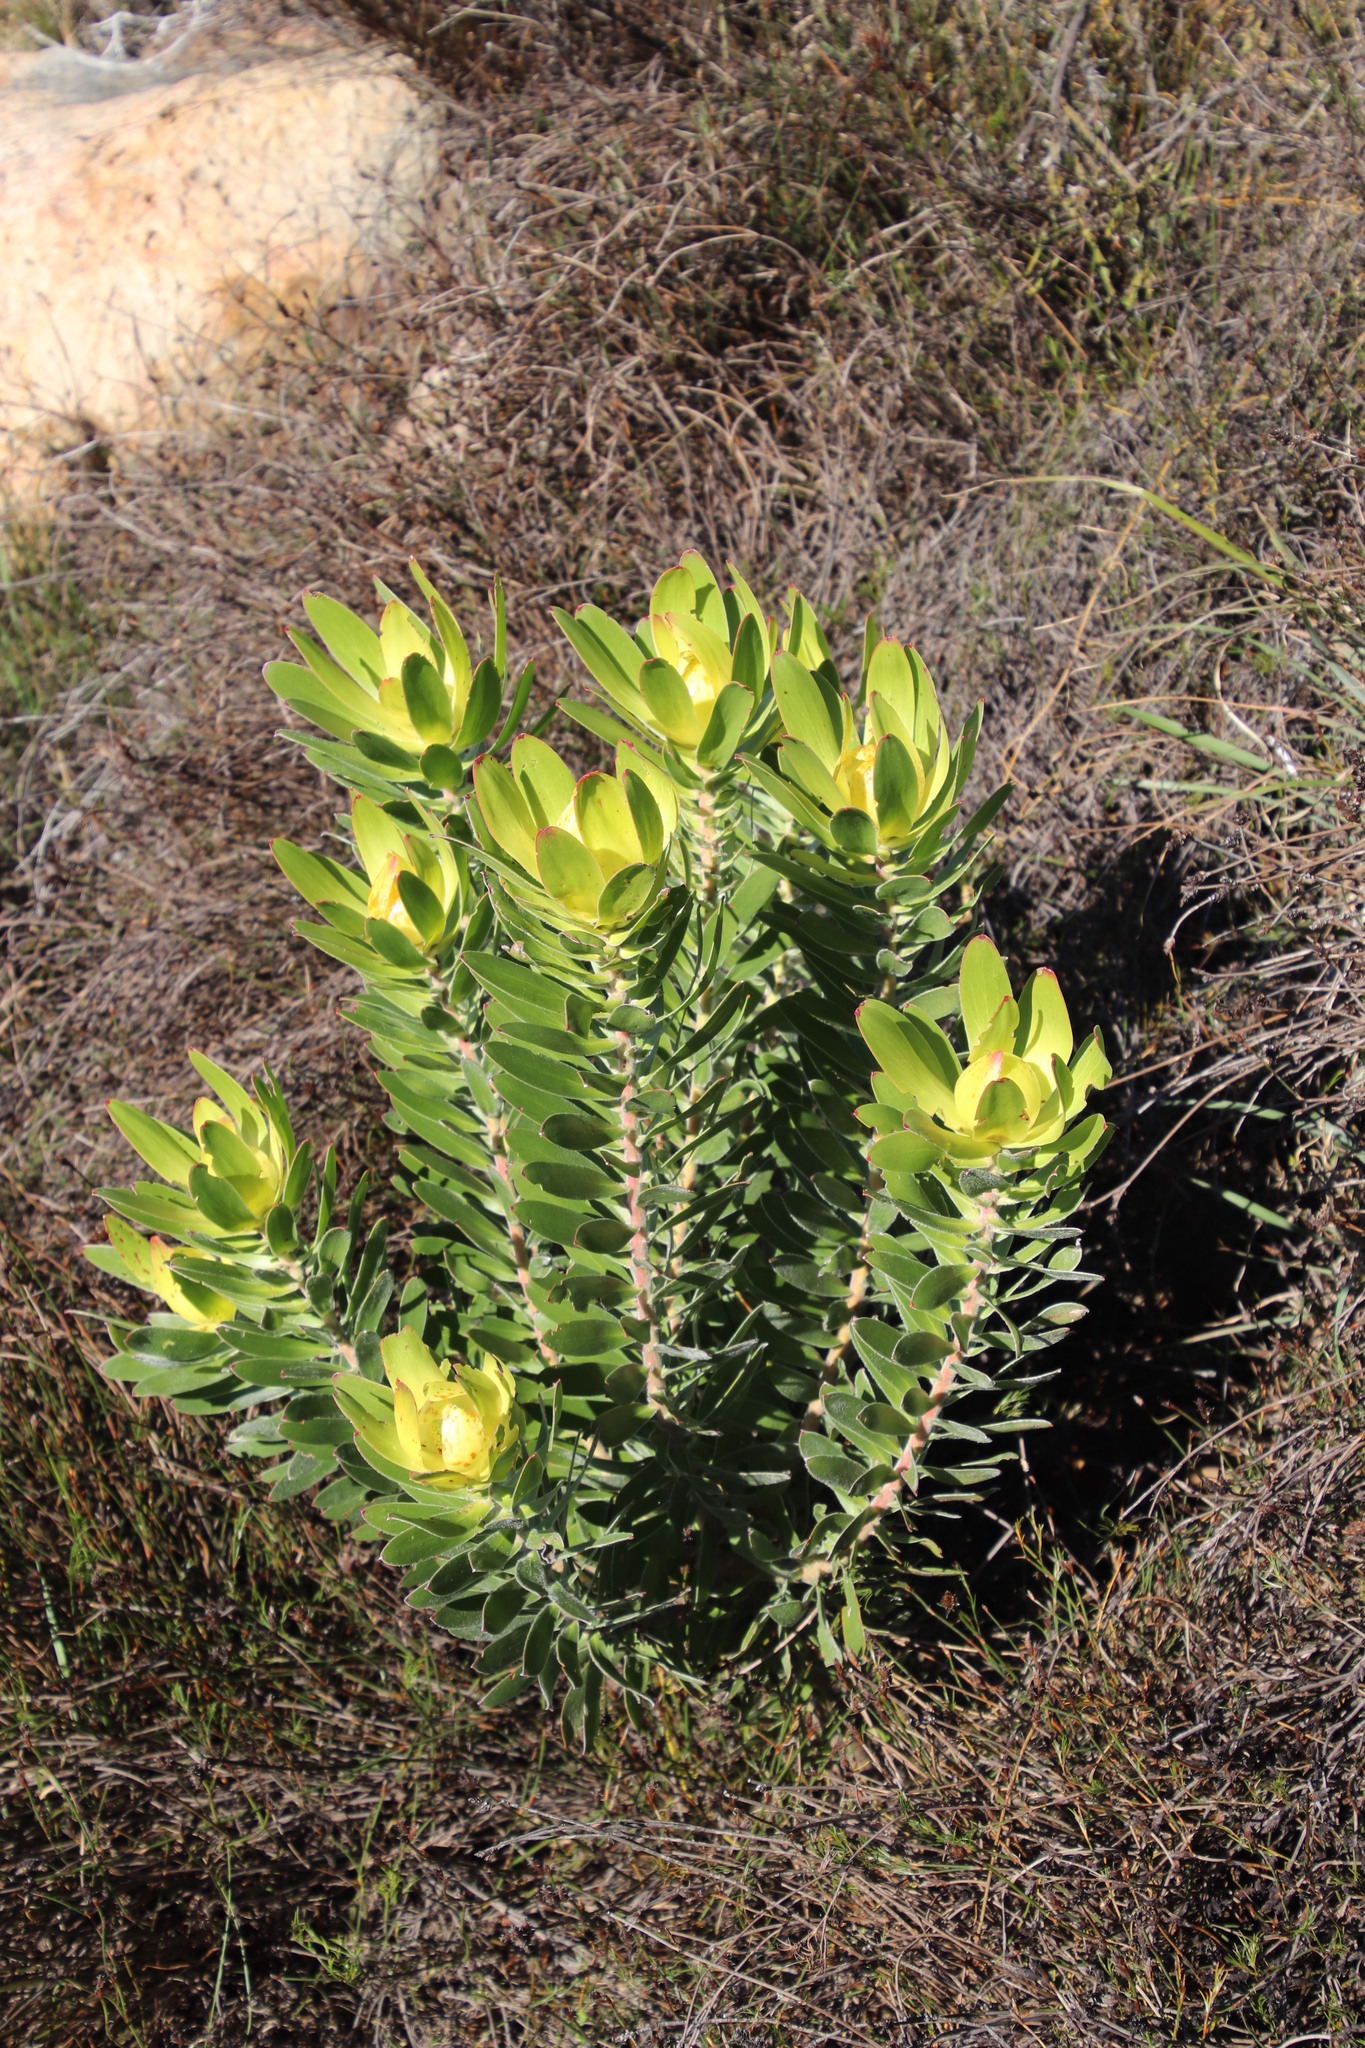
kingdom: Plantae
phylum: Tracheophyta
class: Magnoliopsida
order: Proteales
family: Proteaceae
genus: Leucadendron
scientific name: Leucadendron laureolum
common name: Golden sunshinebush
